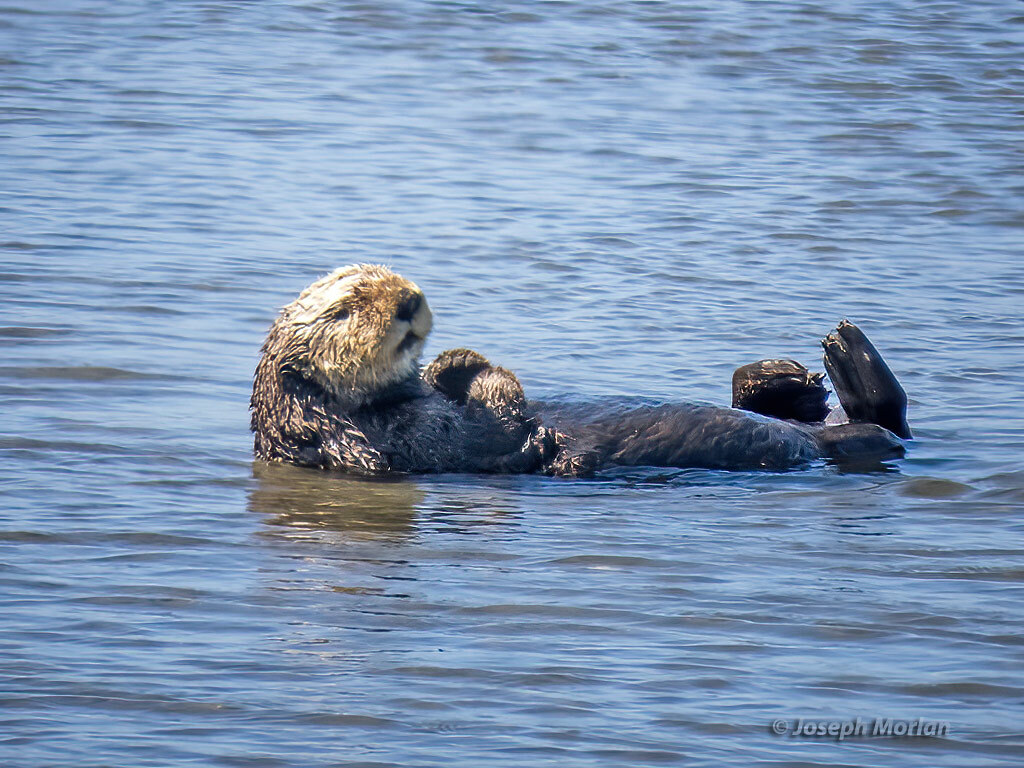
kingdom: Animalia
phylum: Chordata
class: Mammalia
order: Carnivora
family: Mustelidae
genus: Enhydra
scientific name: Enhydra lutris
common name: Sea otter
